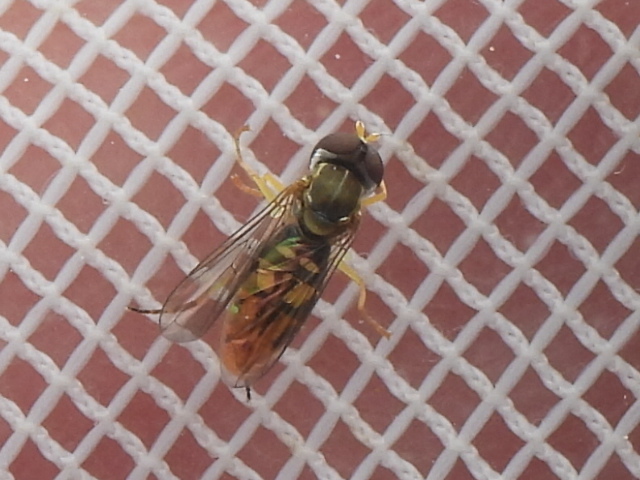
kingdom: Animalia
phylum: Arthropoda
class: Insecta
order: Diptera
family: Syrphidae
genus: Toxomerus
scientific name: Toxomerus marginatus
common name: Syrphid fly
